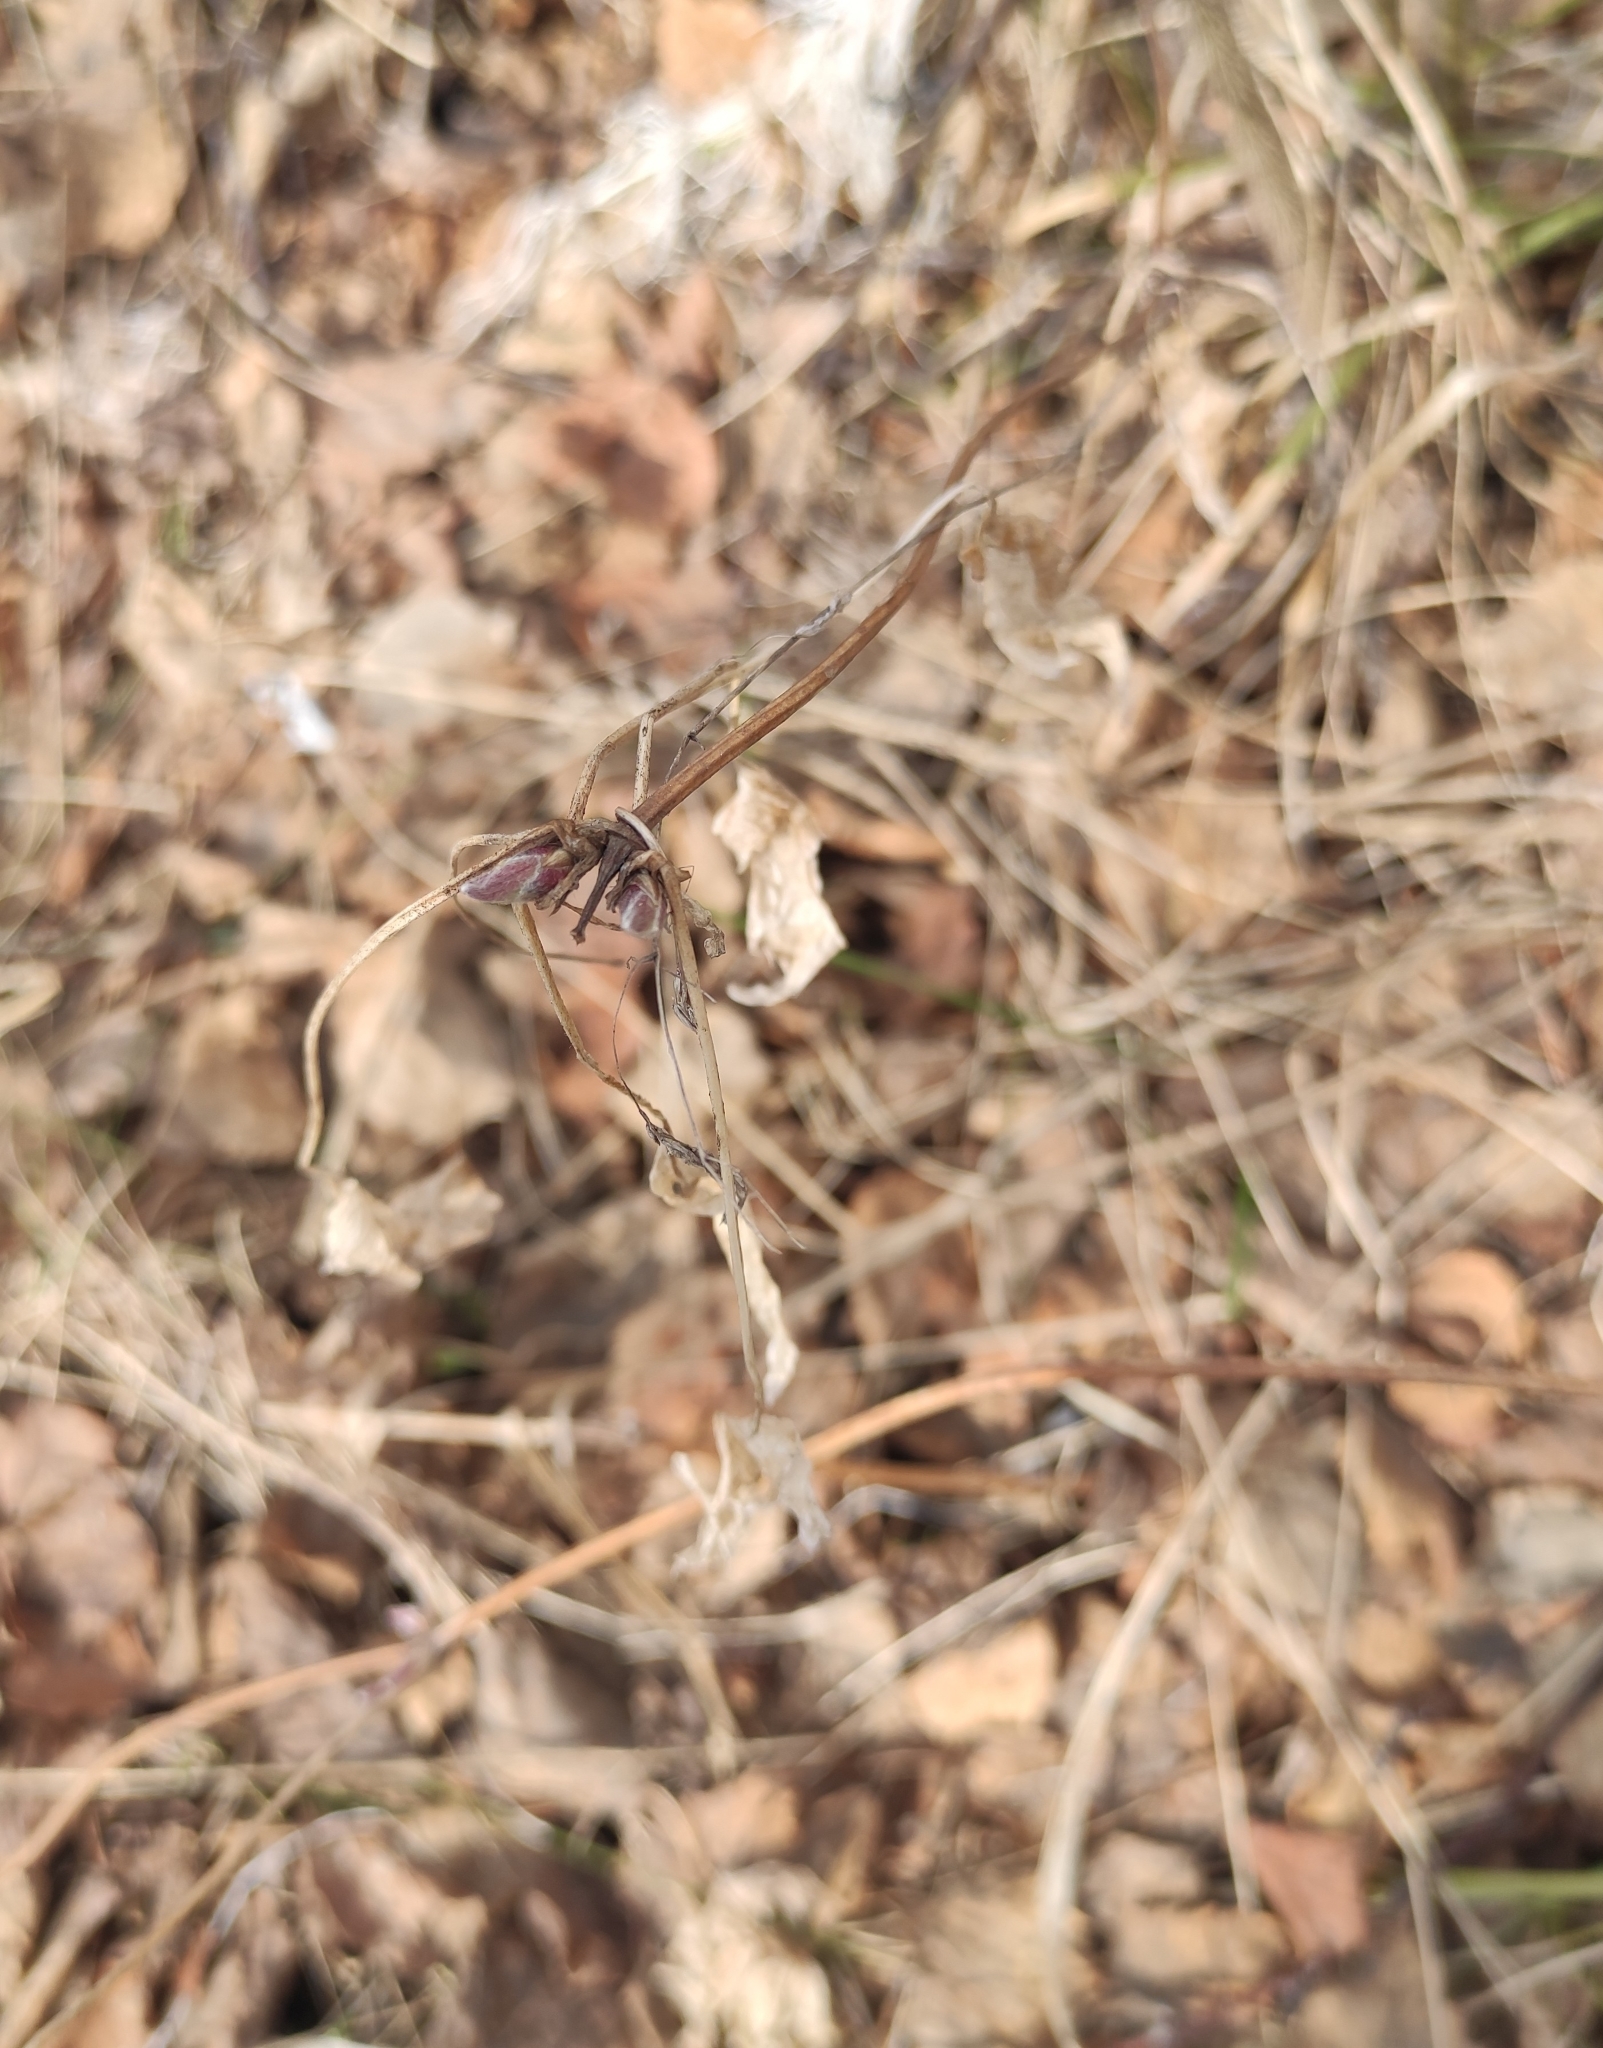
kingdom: Plantae
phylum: Tracheophyta
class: Magnoliopsida
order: Ranunculales
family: Ranunculaceae
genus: Clematis
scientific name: Clematis sibirica
